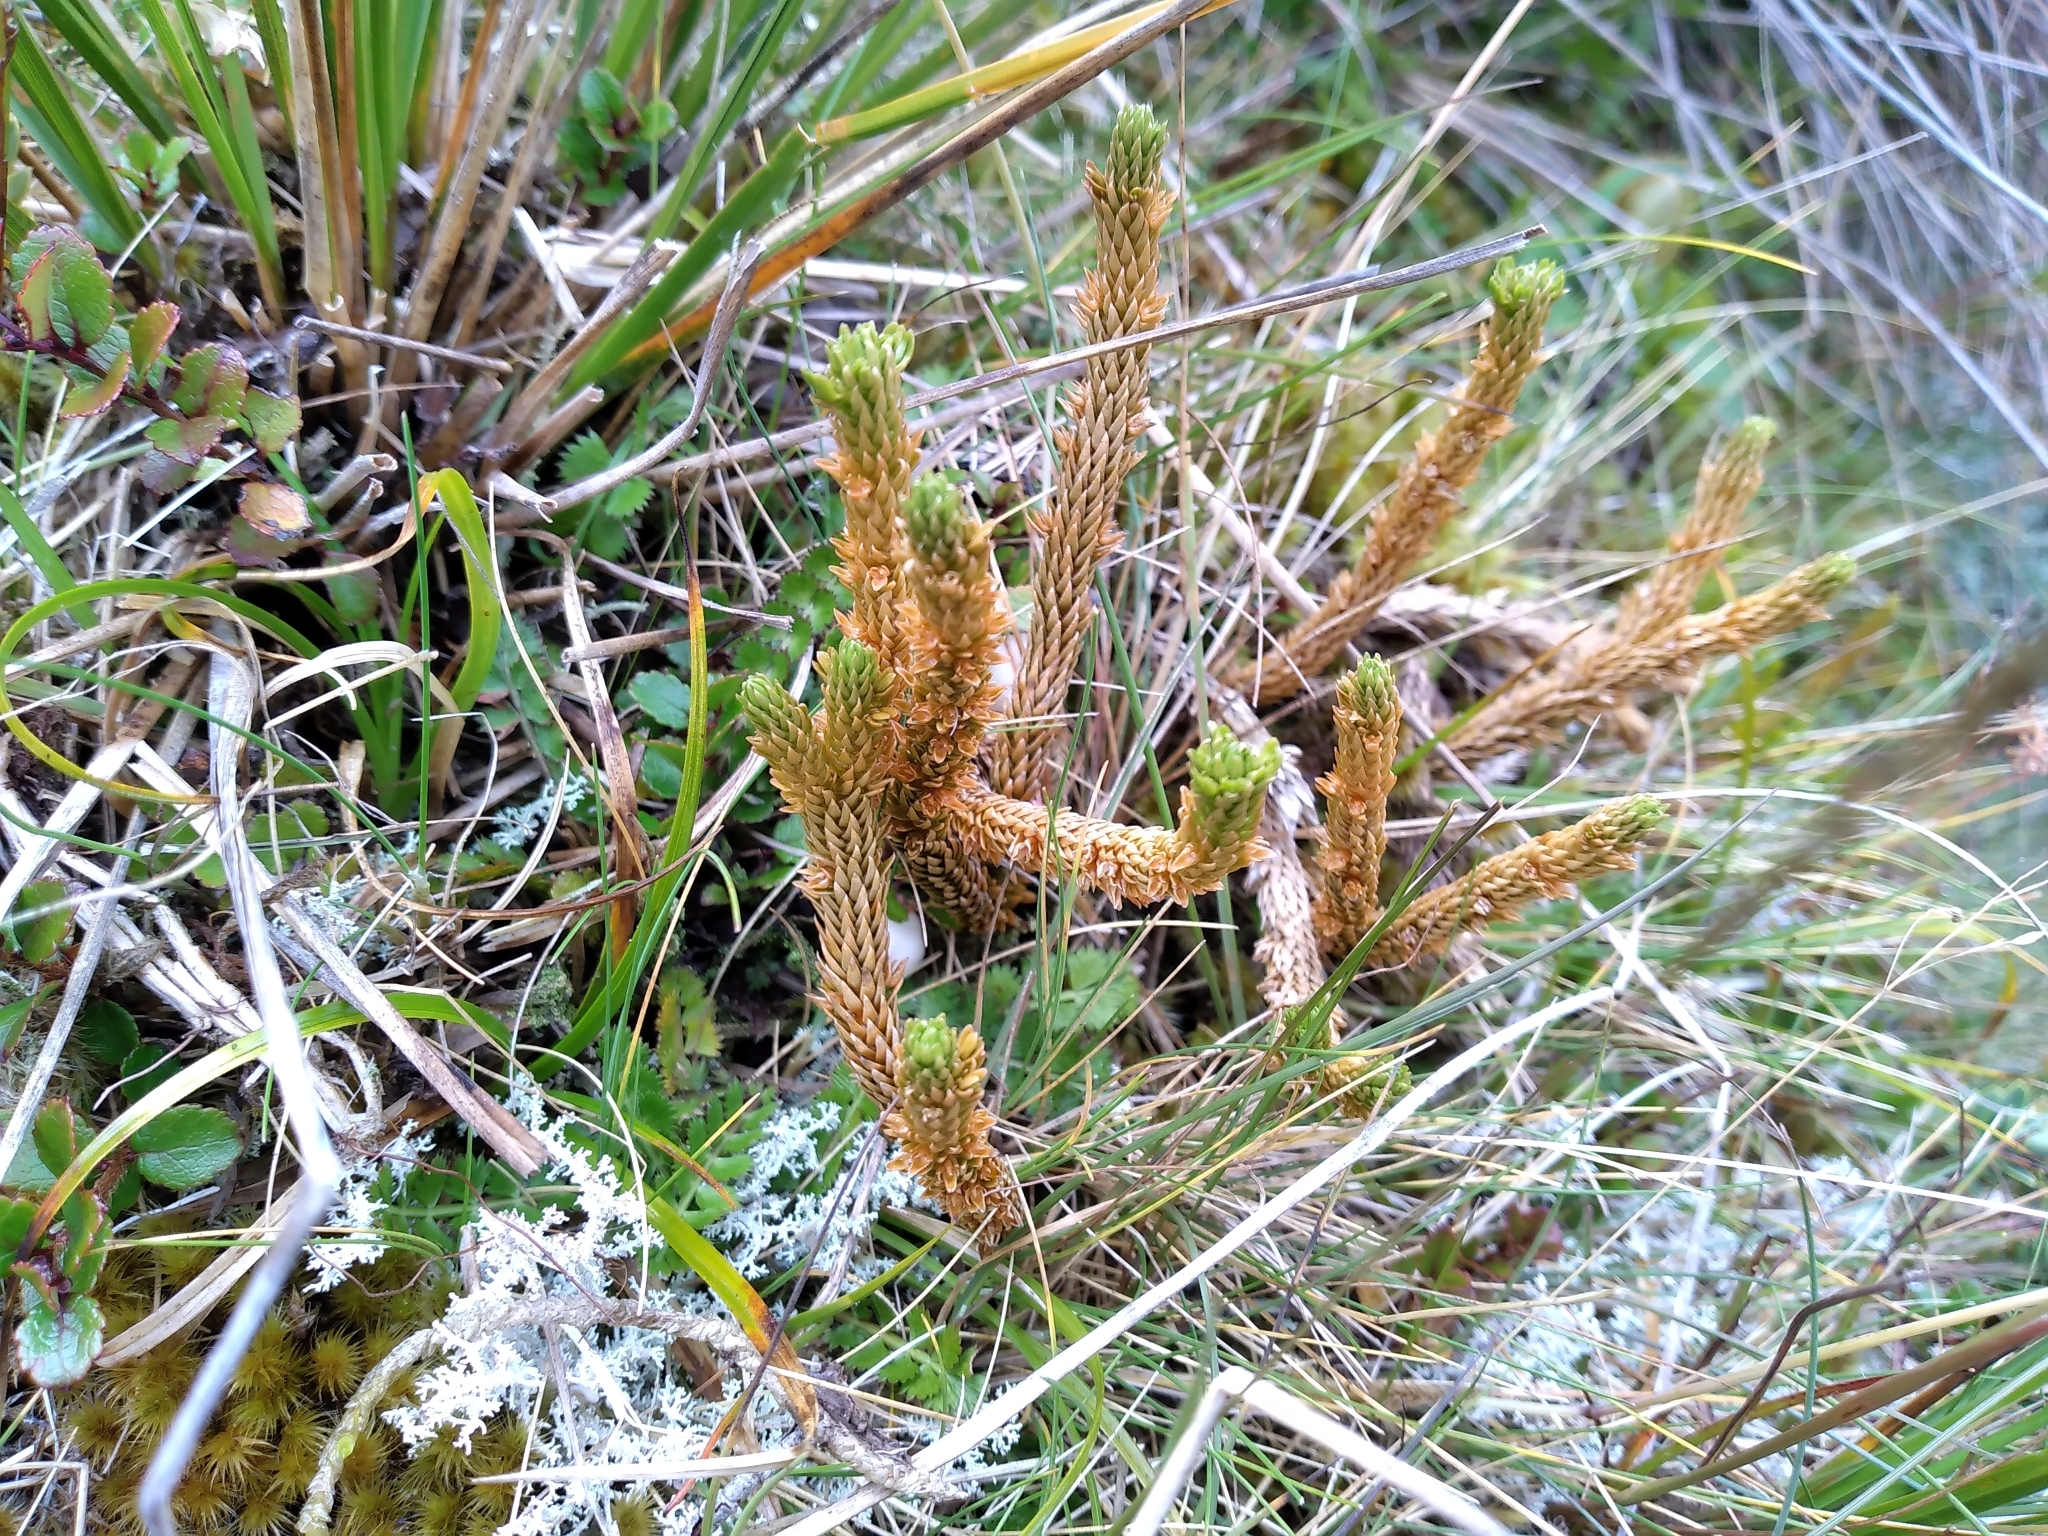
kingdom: Plantae
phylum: Tracheophyta
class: Lycopodiopsida
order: Lycopodiales
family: Lycopodiaceae
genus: Huperzia
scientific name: Huperzia australiana
